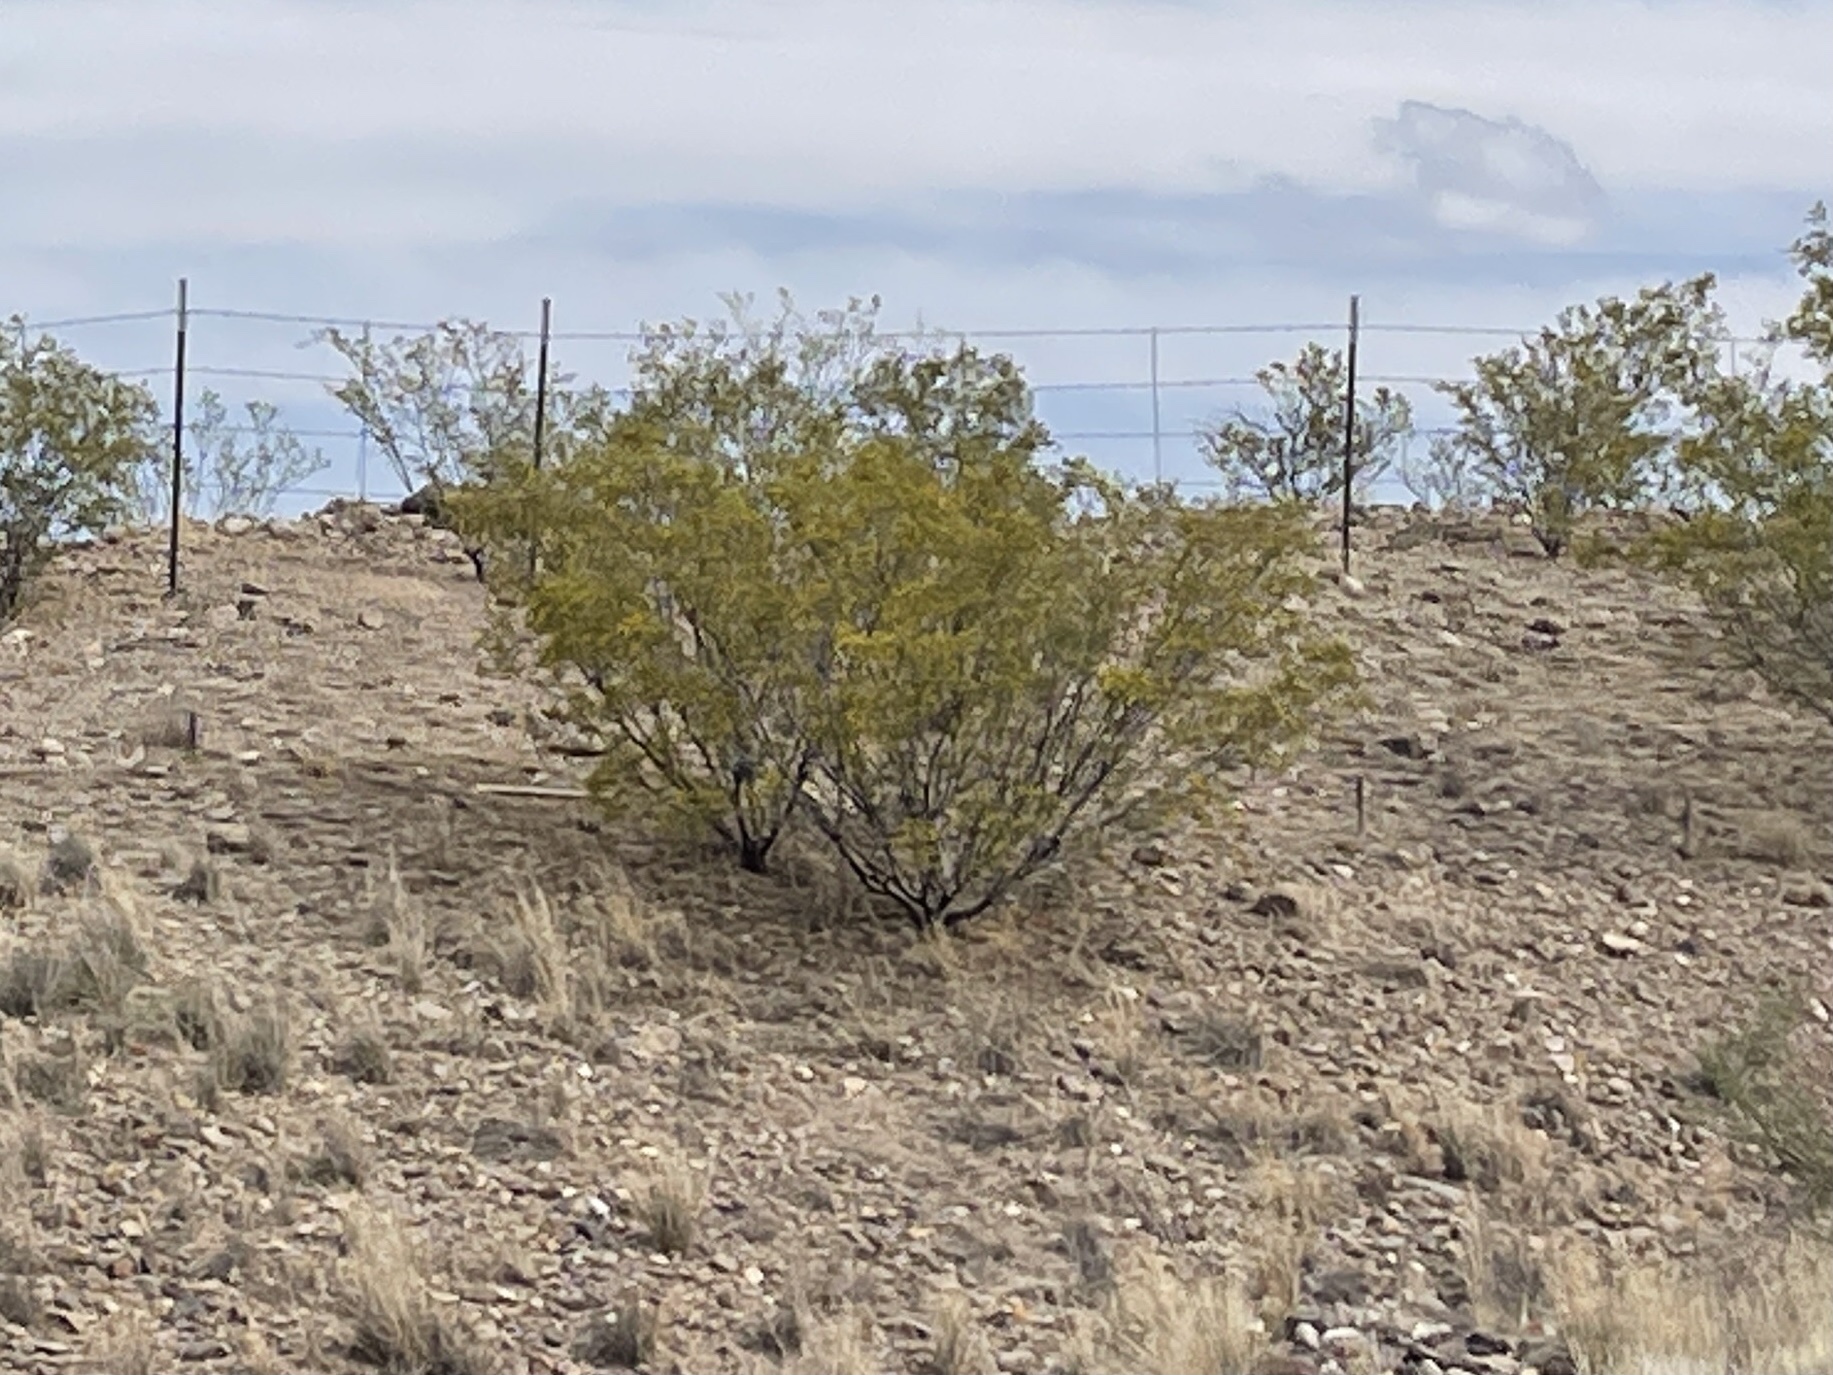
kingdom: Plantae
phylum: Tracheophyta
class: Magnoliopsida
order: Zygophyllales
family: Zygophyllaceae
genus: Larrea
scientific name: Larrea tridentata
